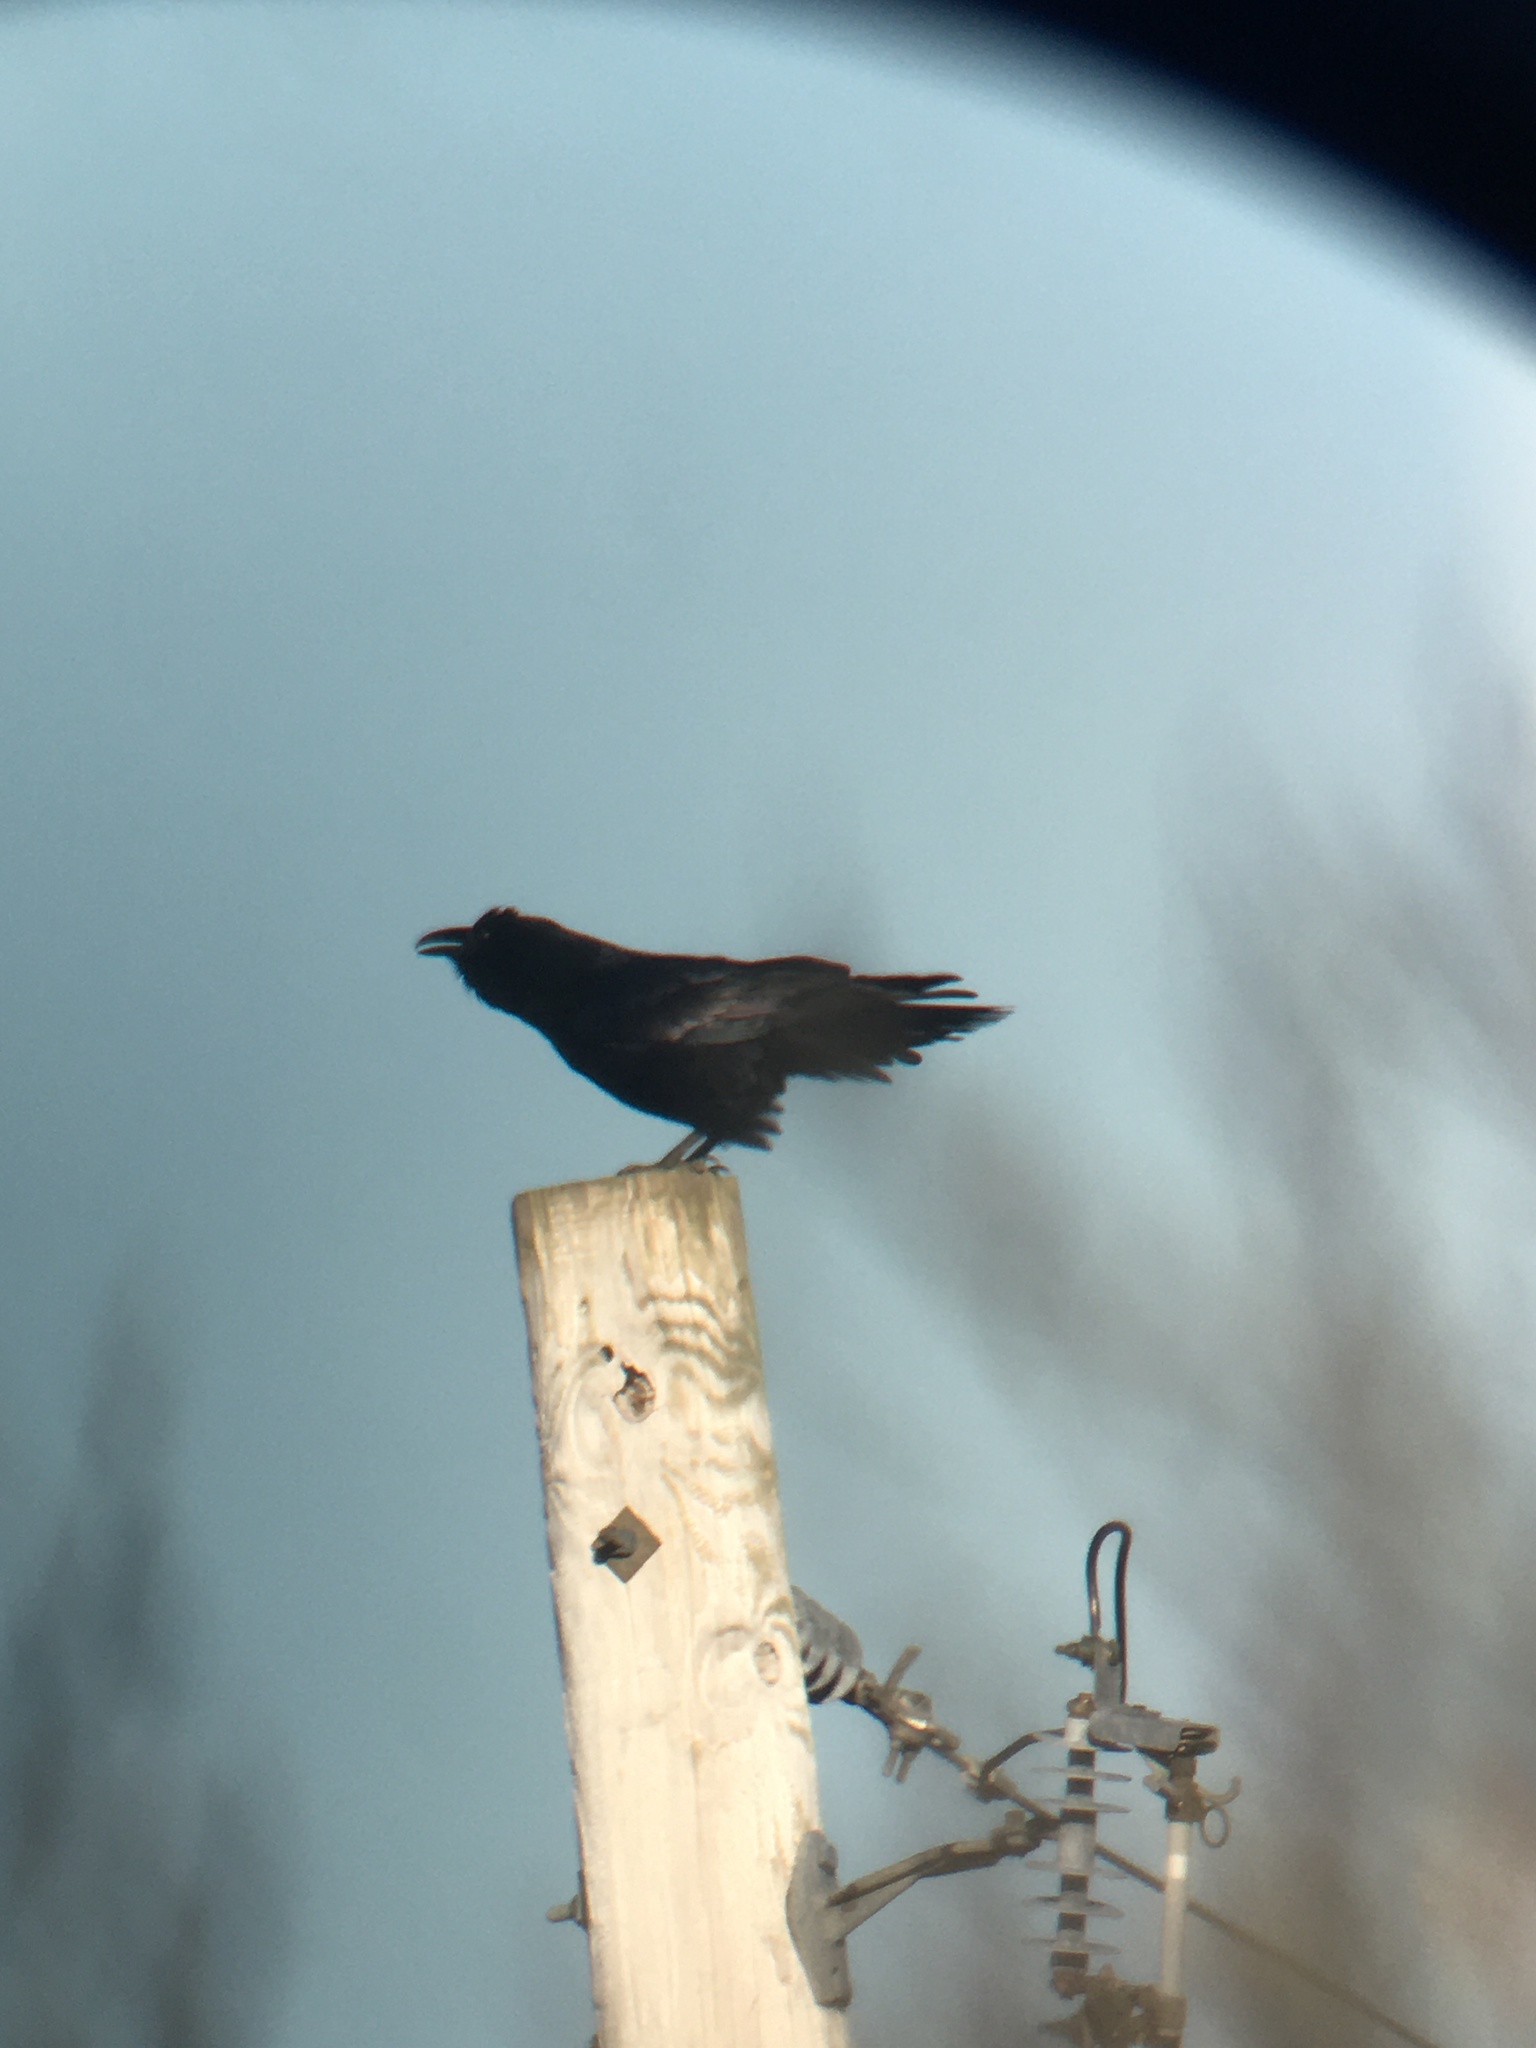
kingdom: Animalia
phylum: Chordata
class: Aves
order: Passeriformes
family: Corvidae
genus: Corvus
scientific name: Corvus corax
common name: Common raven
